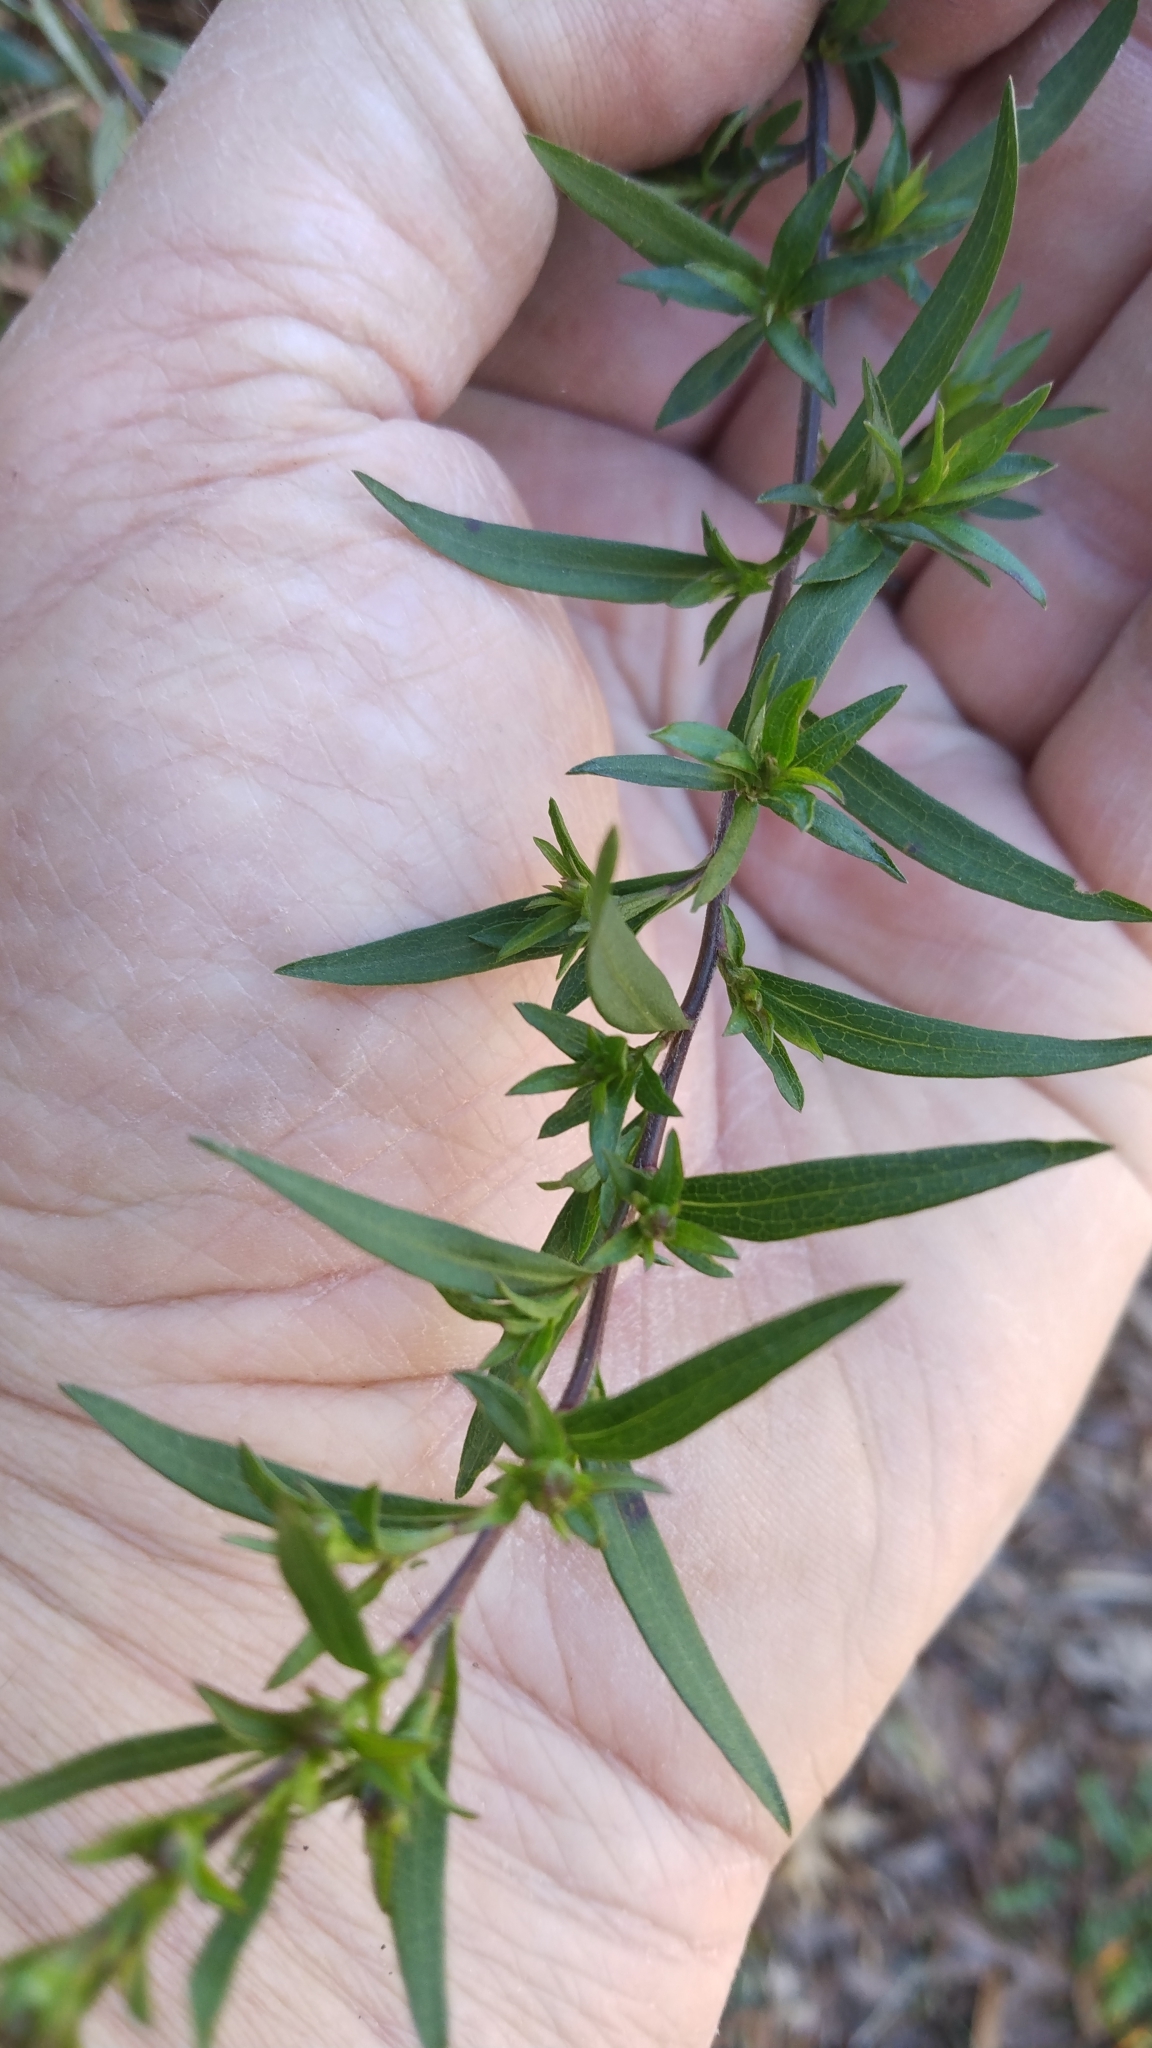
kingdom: Fungi
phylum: Ascomycota
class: Leotiomycetes
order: Helotiales
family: Erysiphaceae
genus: Golovinomyces
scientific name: Golovinomyces asterum
